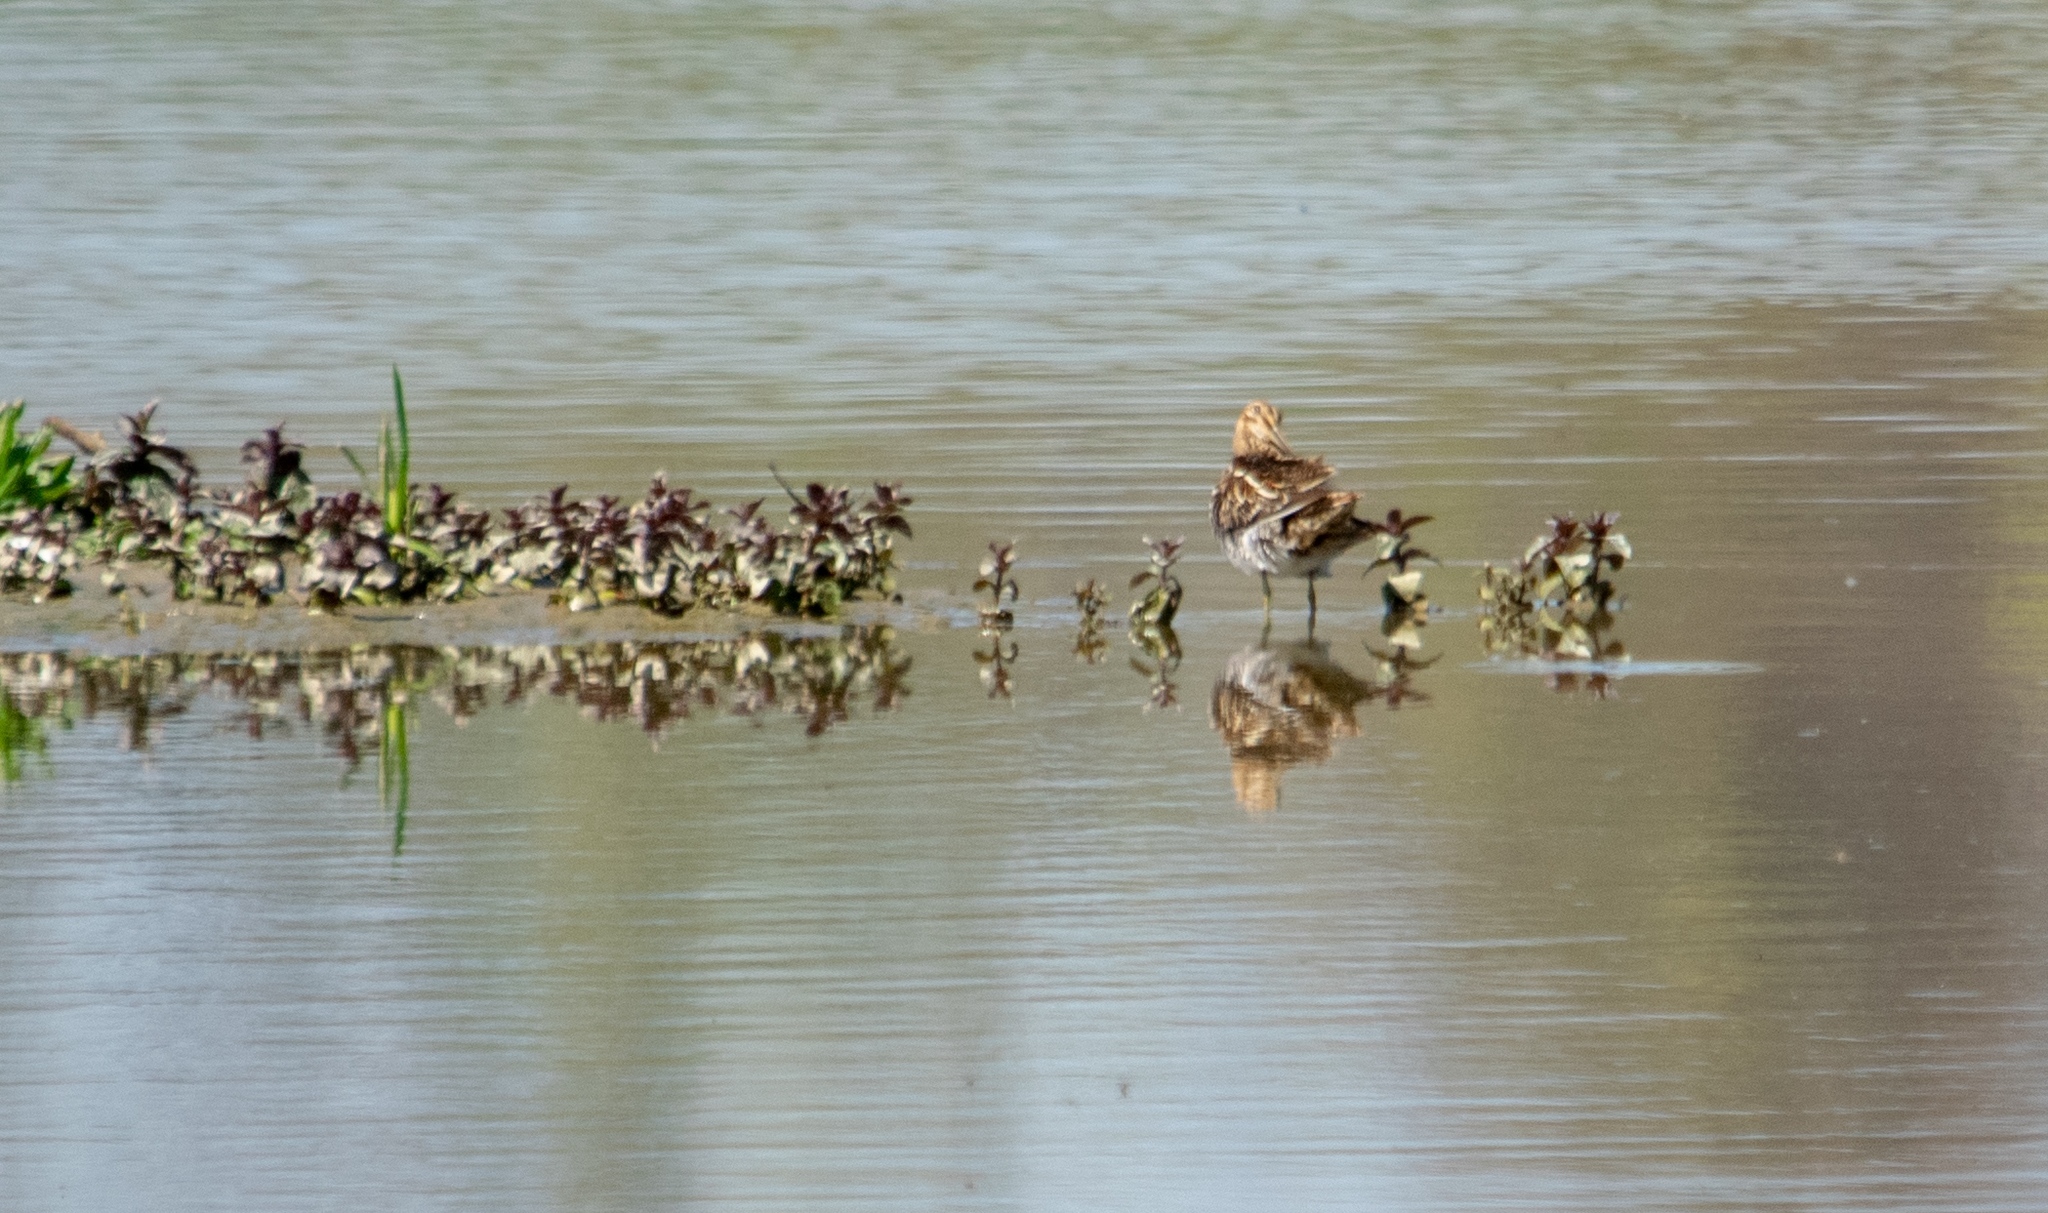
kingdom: Animalia
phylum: Chordata
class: Aves
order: Charadriiformes
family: Scolopacidae
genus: Gallinago
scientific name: Gallinago gallinago
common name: Common snipe
